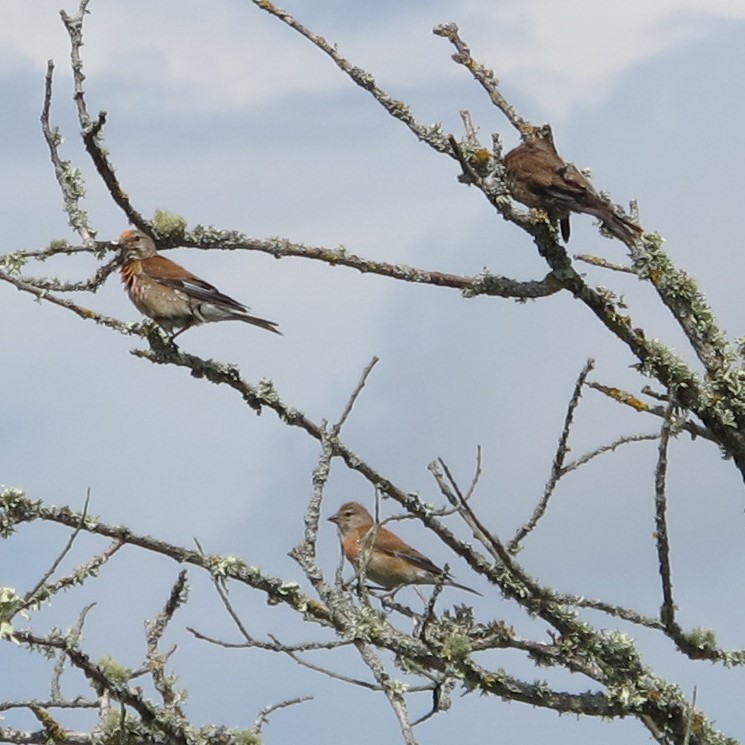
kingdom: Animalia
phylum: Chordata
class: Aves
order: Passeriformes
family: Fringillidae
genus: Linaria
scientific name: Linaria cannabina
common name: Common linnet
